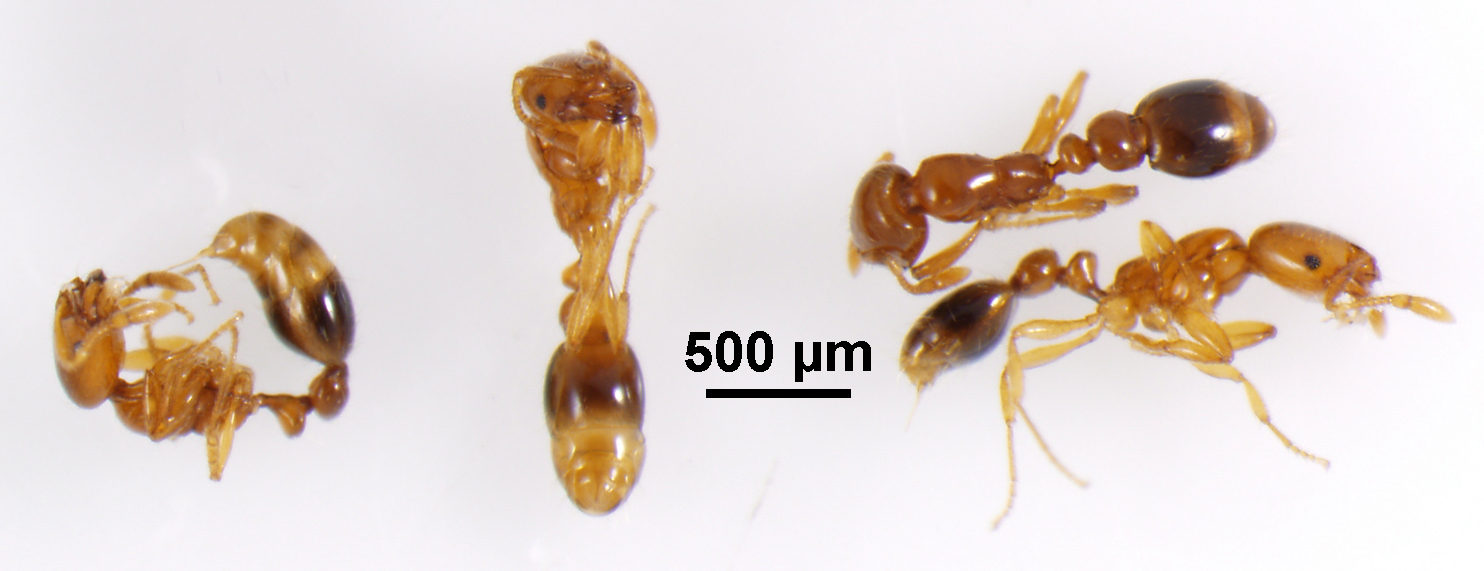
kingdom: Animalia
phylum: Arthropoda
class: Insecta
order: Hymenoptera
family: Formicidae
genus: Solenopsis
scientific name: Solenopsis globularia
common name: Ant
